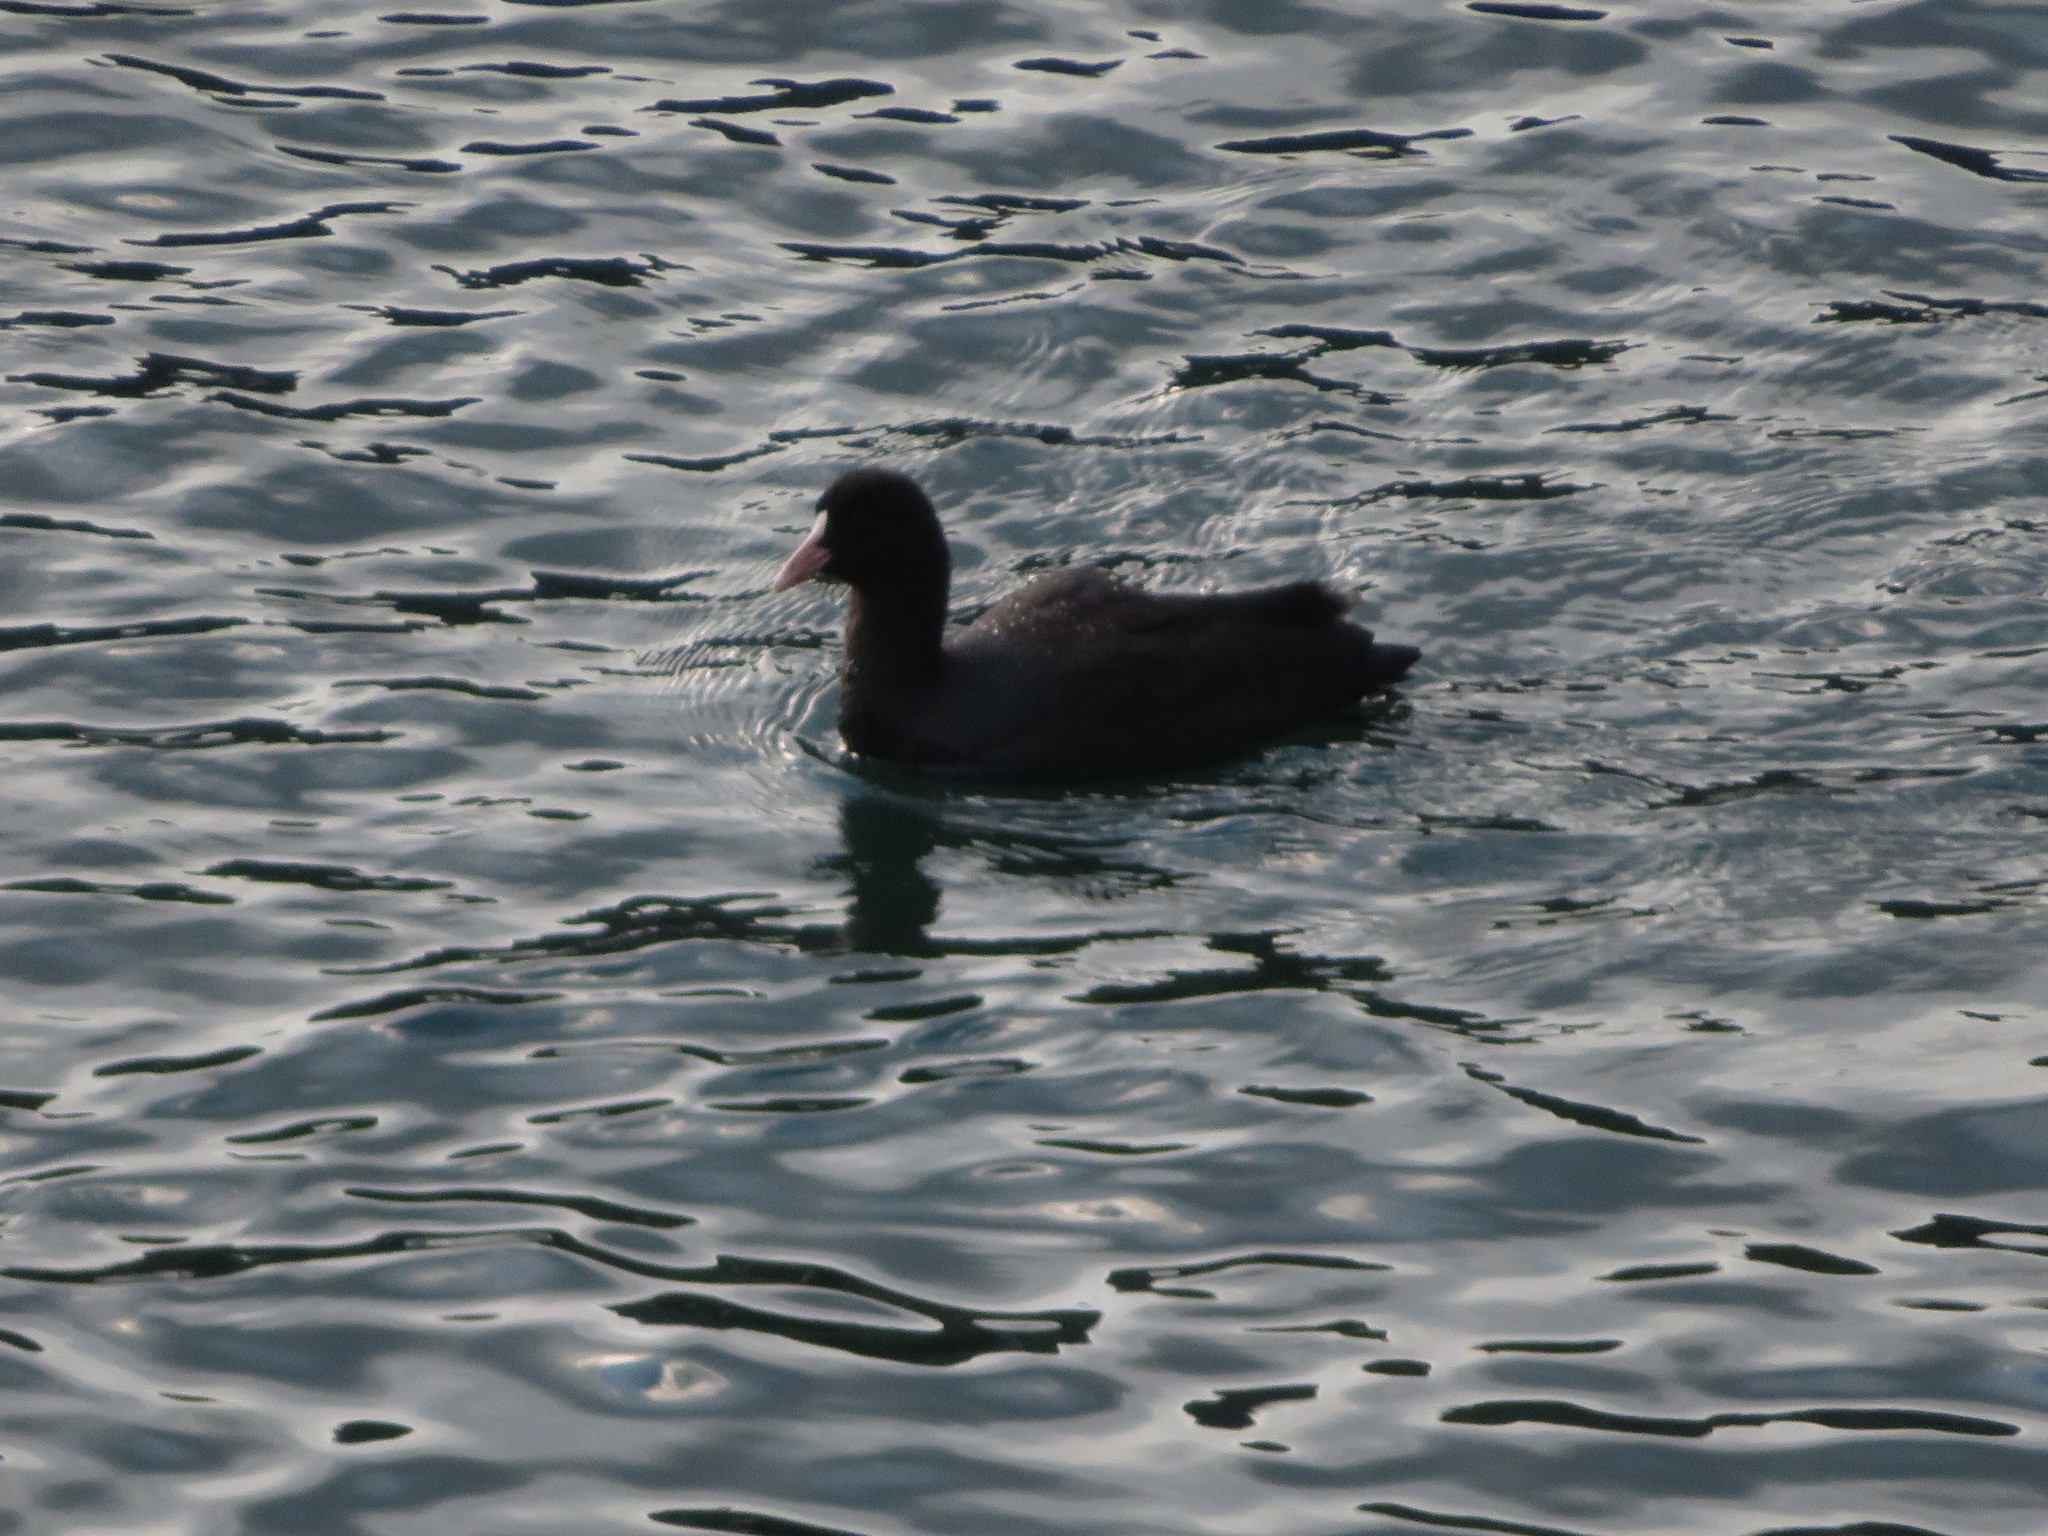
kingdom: Animalia
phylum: Chordata
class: Aves
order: Gruiformes
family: Rallidae
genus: Fulica
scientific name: Fulica atra
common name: Eurasian coot
